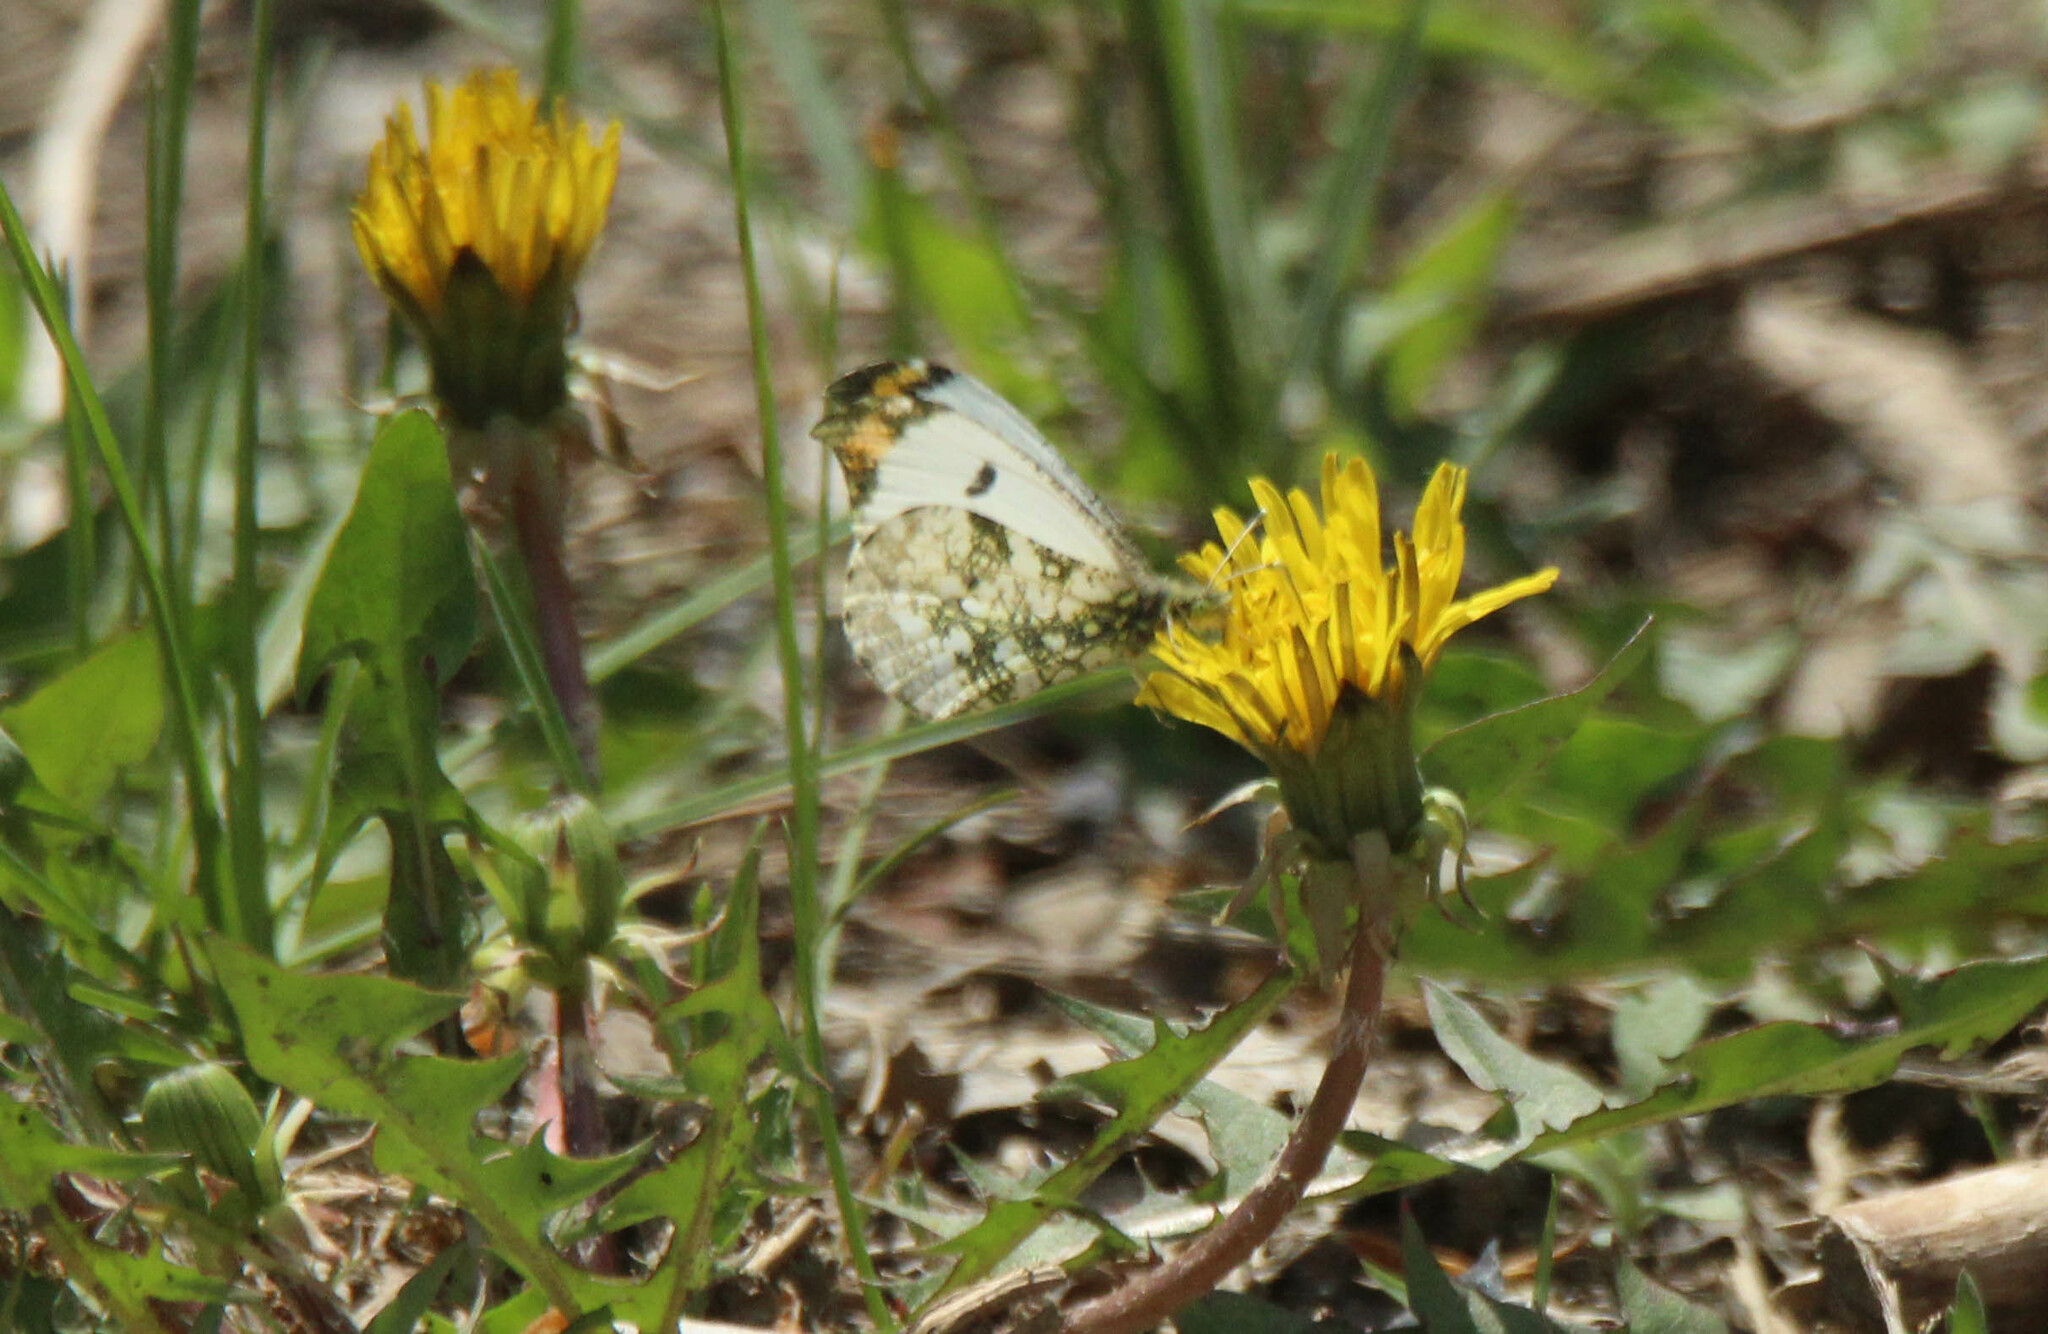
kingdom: Animalia
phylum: Arthropoda
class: Insecta
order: Lepidoptera
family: Pieridae
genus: Anthocharis
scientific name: Anthocharis scolymus
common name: Yellow tip
